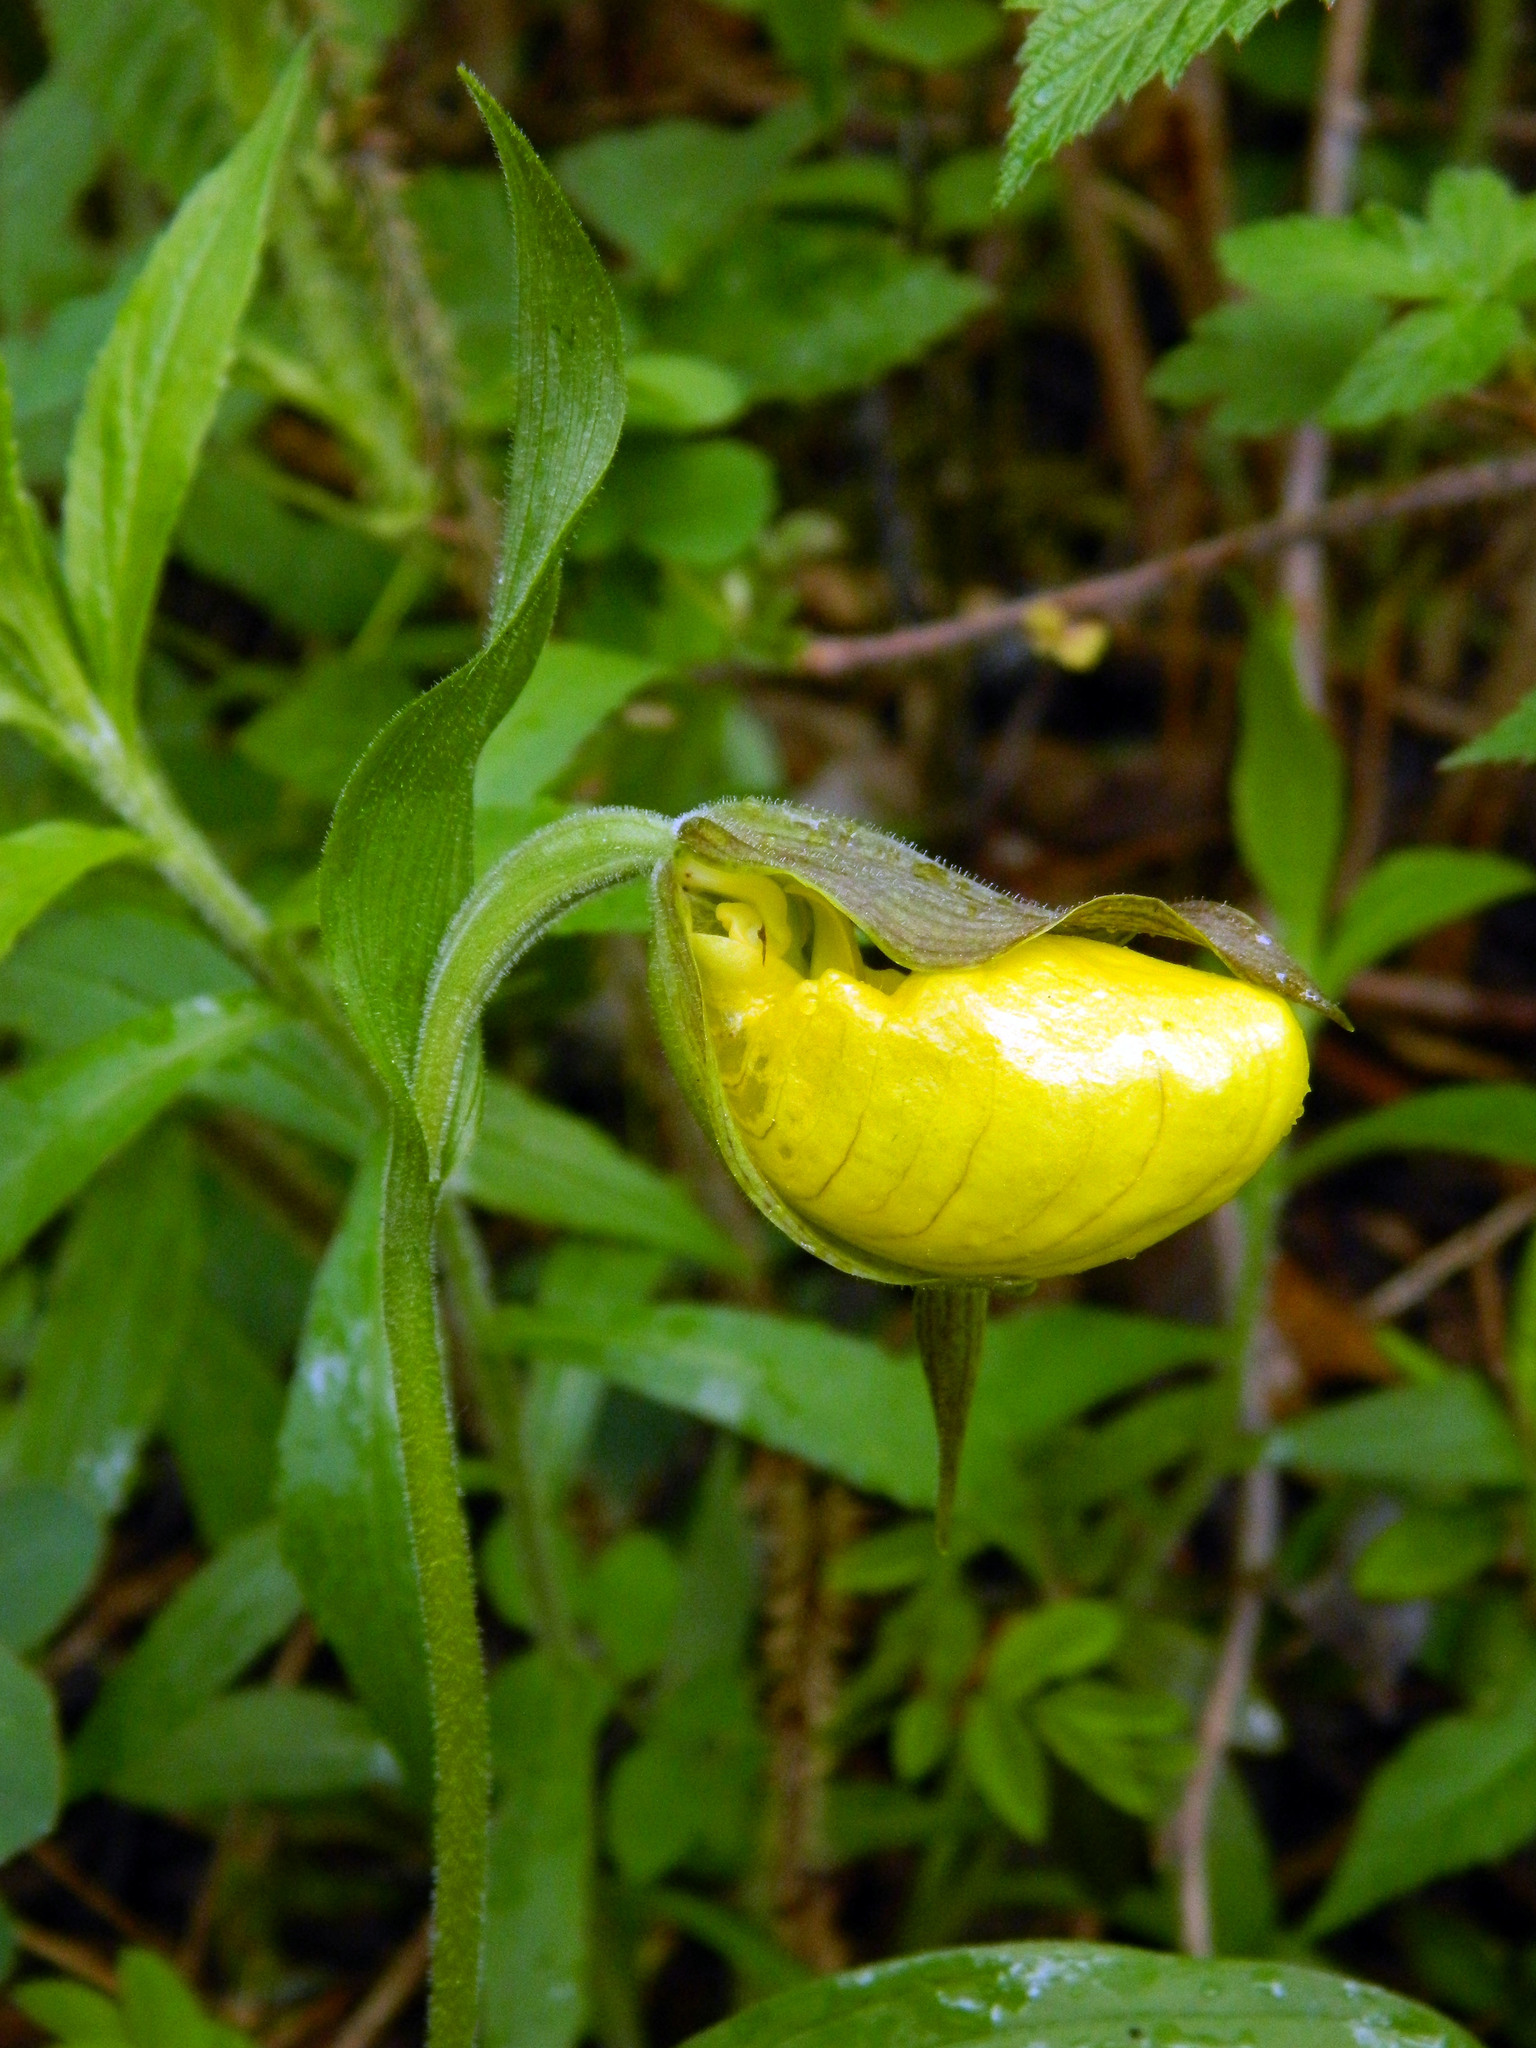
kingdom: Plantae
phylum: Tracheophyta
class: Liliopsida
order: Asparagales
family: Orchidaceae
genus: Cypripedium
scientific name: Cypripedium parviflorum
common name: American yellow lady's-slipper
